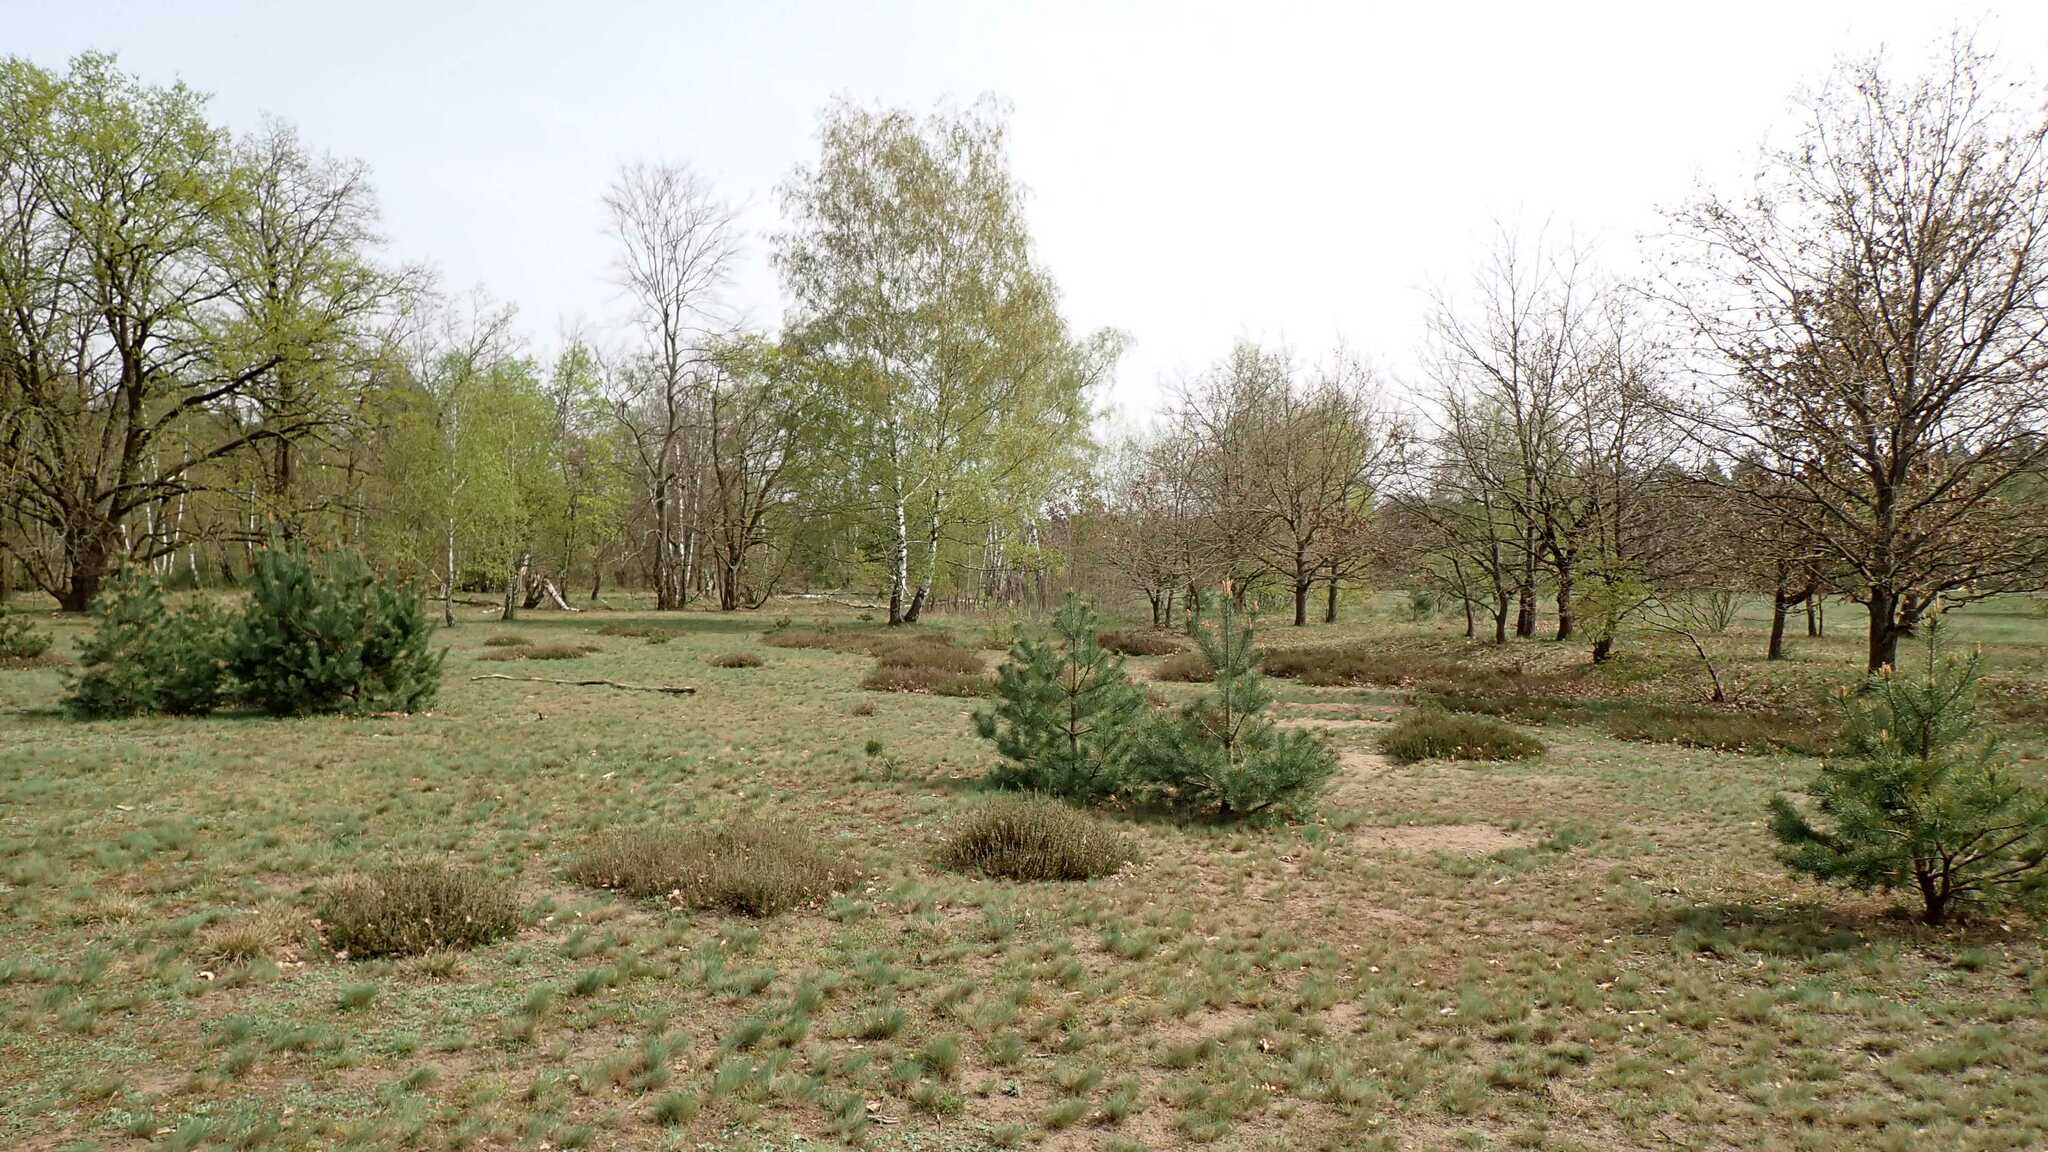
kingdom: Plantae
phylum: Tracheophyta
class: Magnoliopsida
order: Ericales
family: Ericaceae
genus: Calluna
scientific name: Calluna vulgaris
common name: Heather
